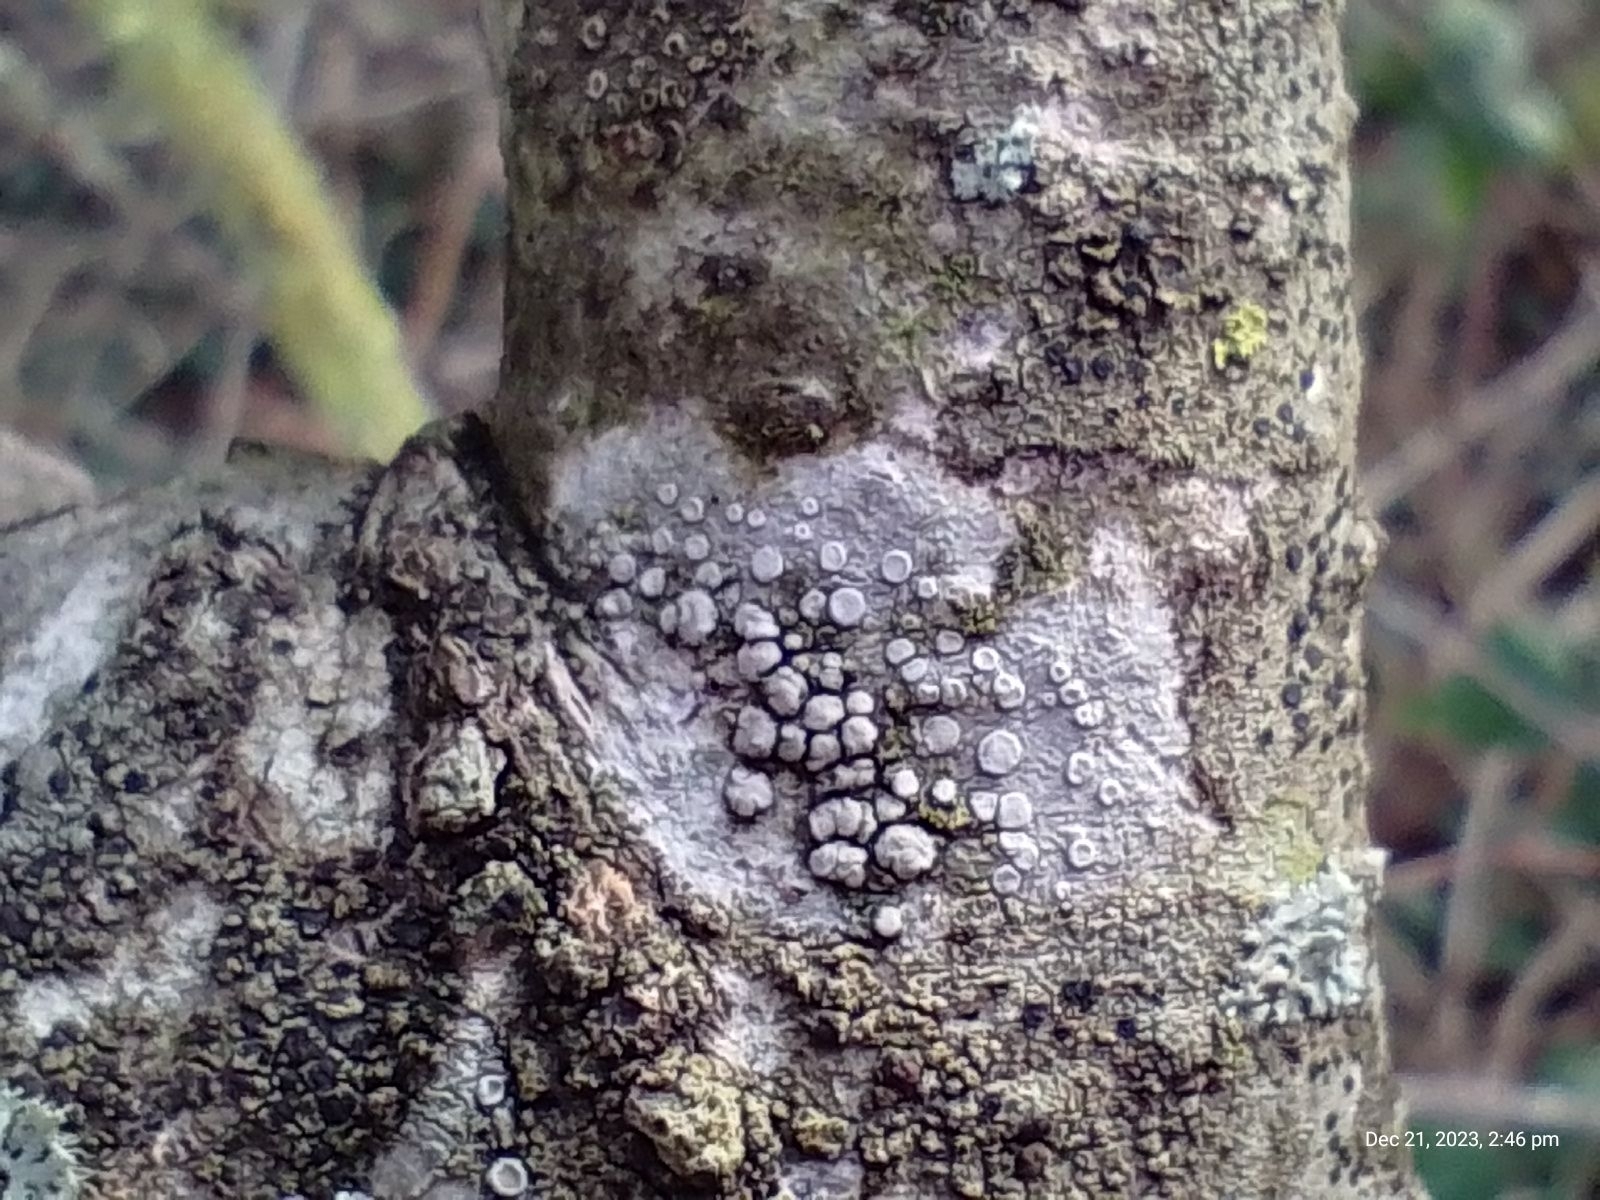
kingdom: Fungi
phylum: Ascomycota
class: Lecanoromycetes
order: Lecanorales
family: Lecanoraceae
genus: Glaucomaria
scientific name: Glaucomaria carpinea
